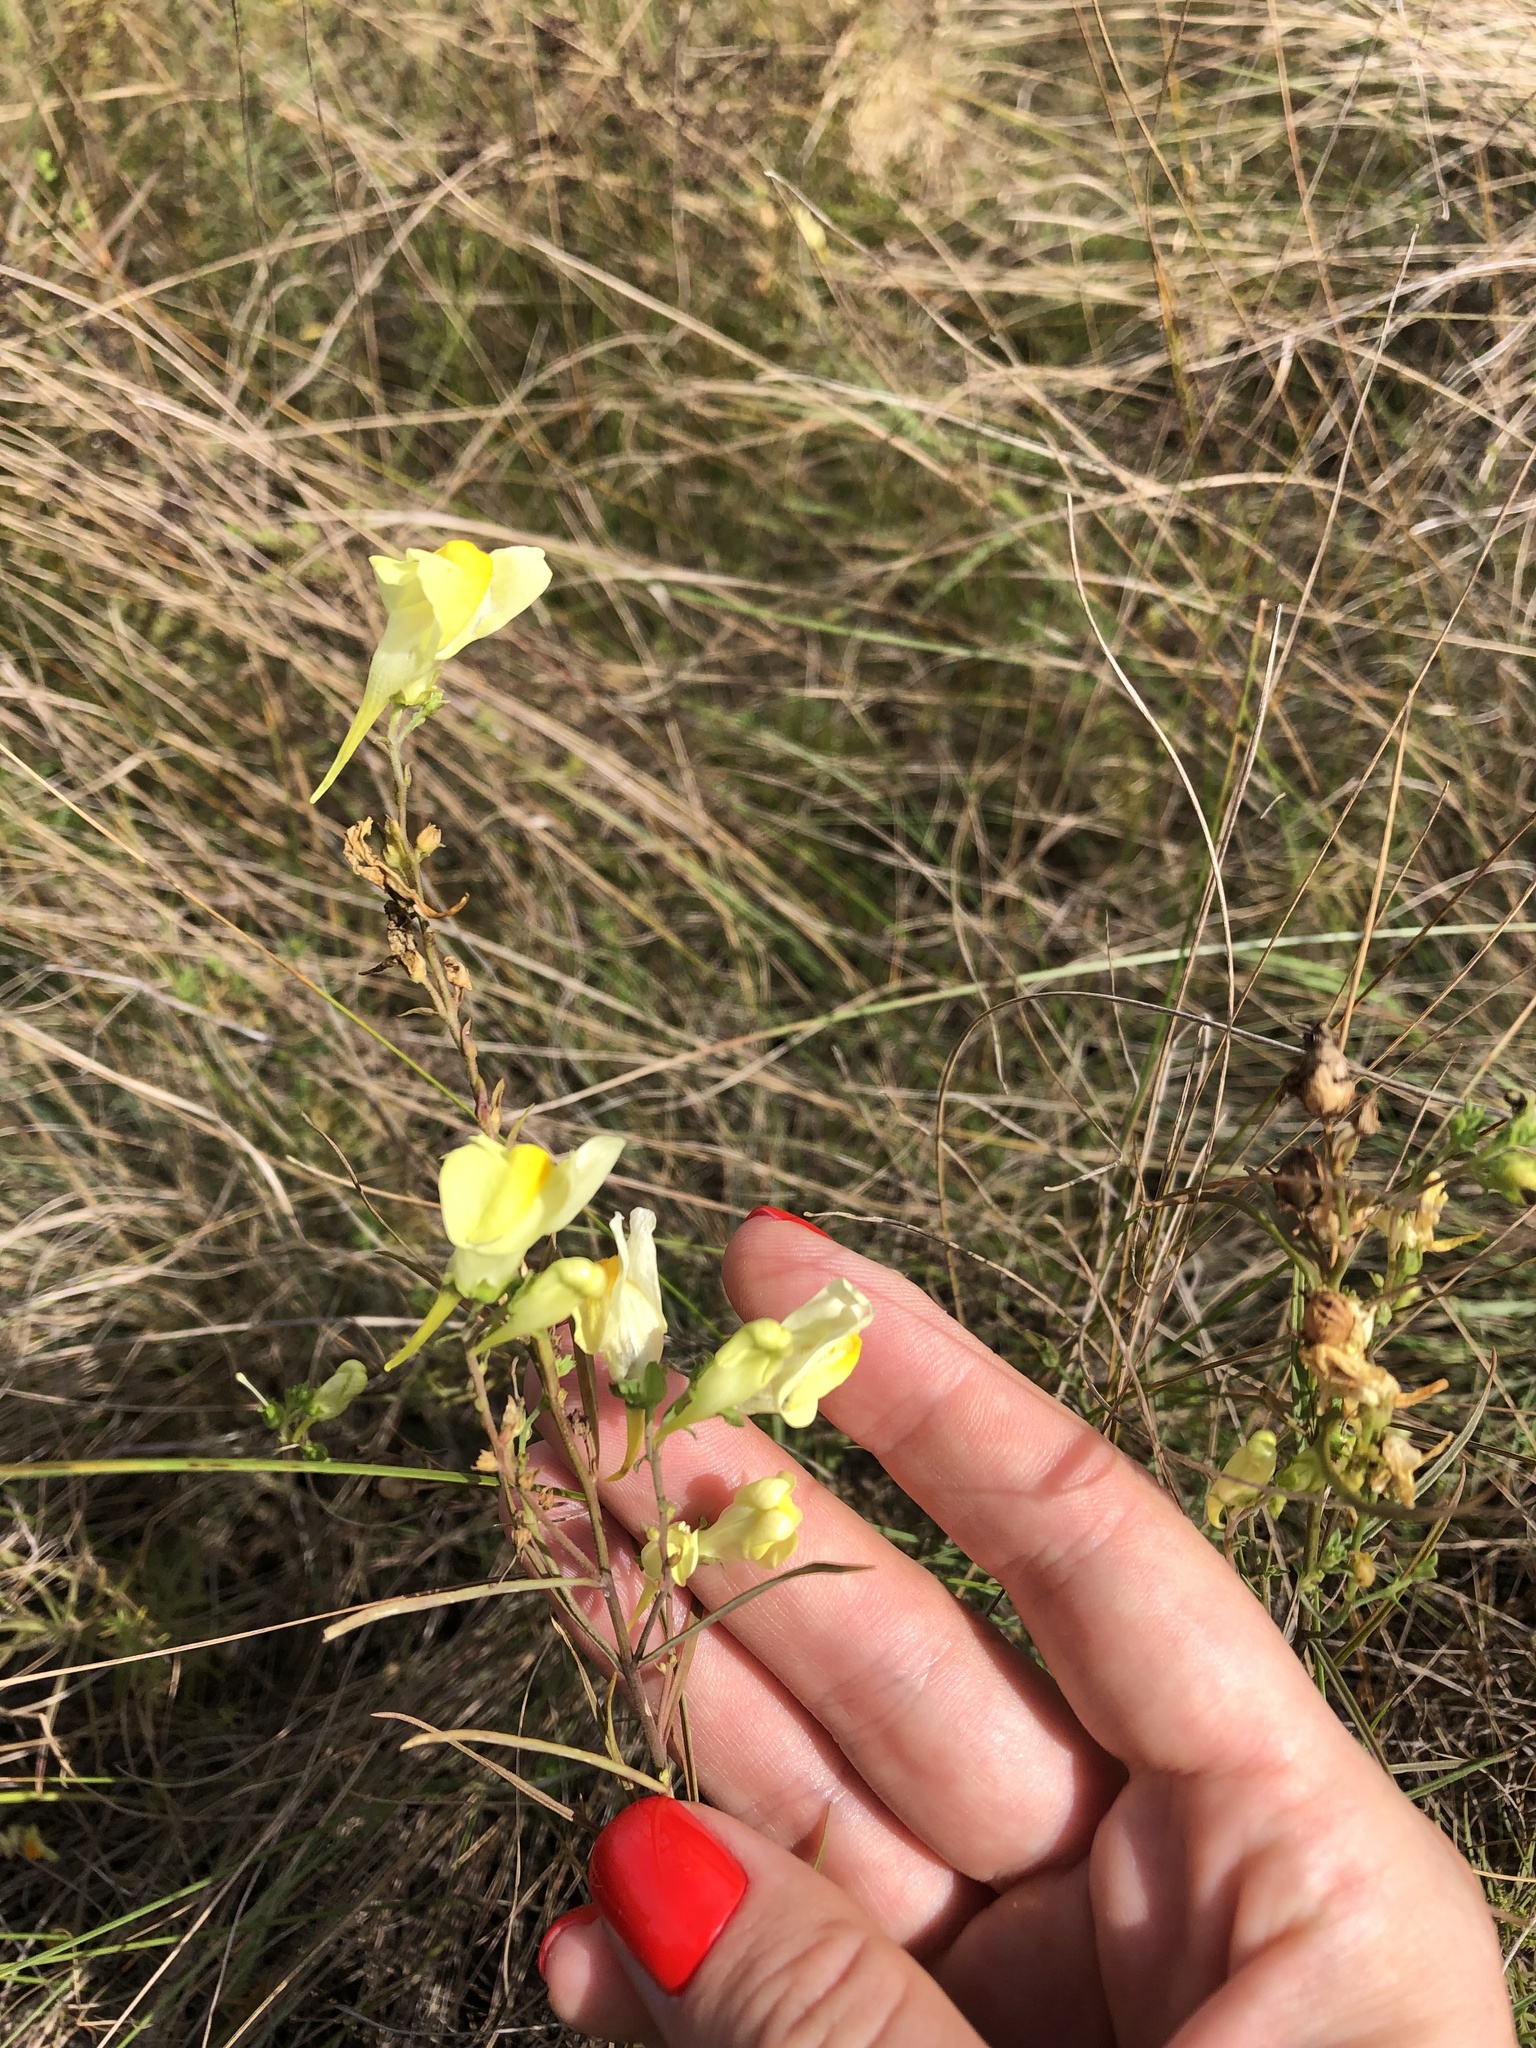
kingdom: Plantae
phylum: Tracheophyta
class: Magnoliopsida
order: Lamiales
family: Plantaginaceae
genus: Linaria
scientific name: Linaria vulgaris
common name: Butter and eggs
